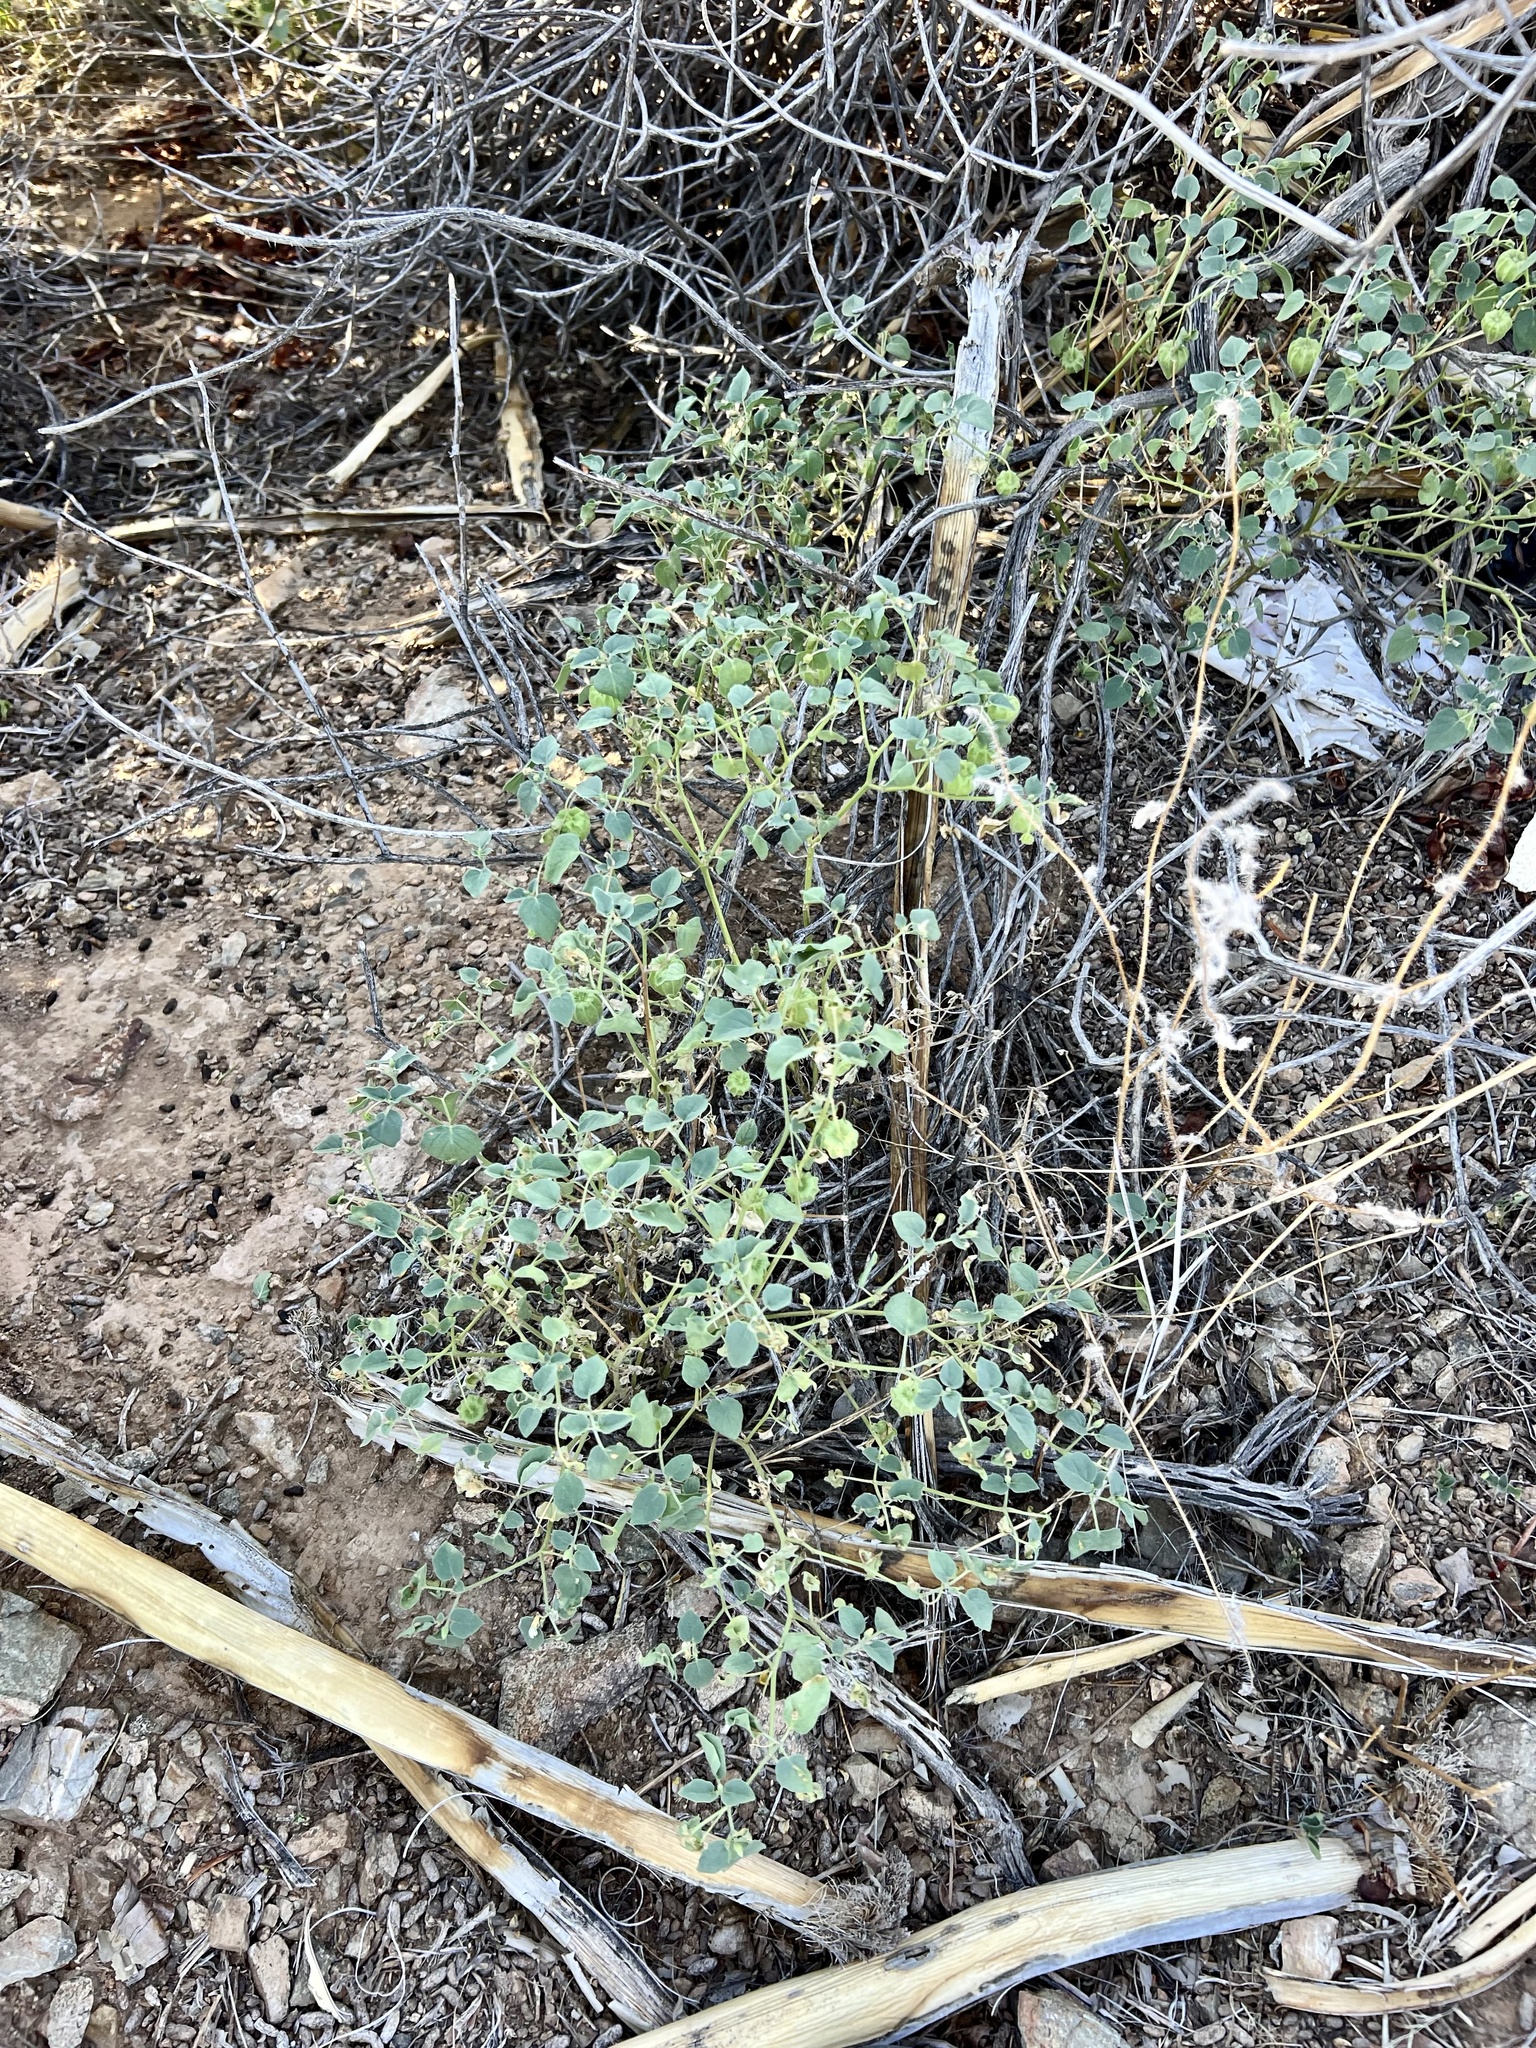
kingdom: Plantae
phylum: Tracheophyta
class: Magnoliopsida
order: Solanales
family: Solanaceae
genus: Physalis
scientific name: Physalis crassifolia
